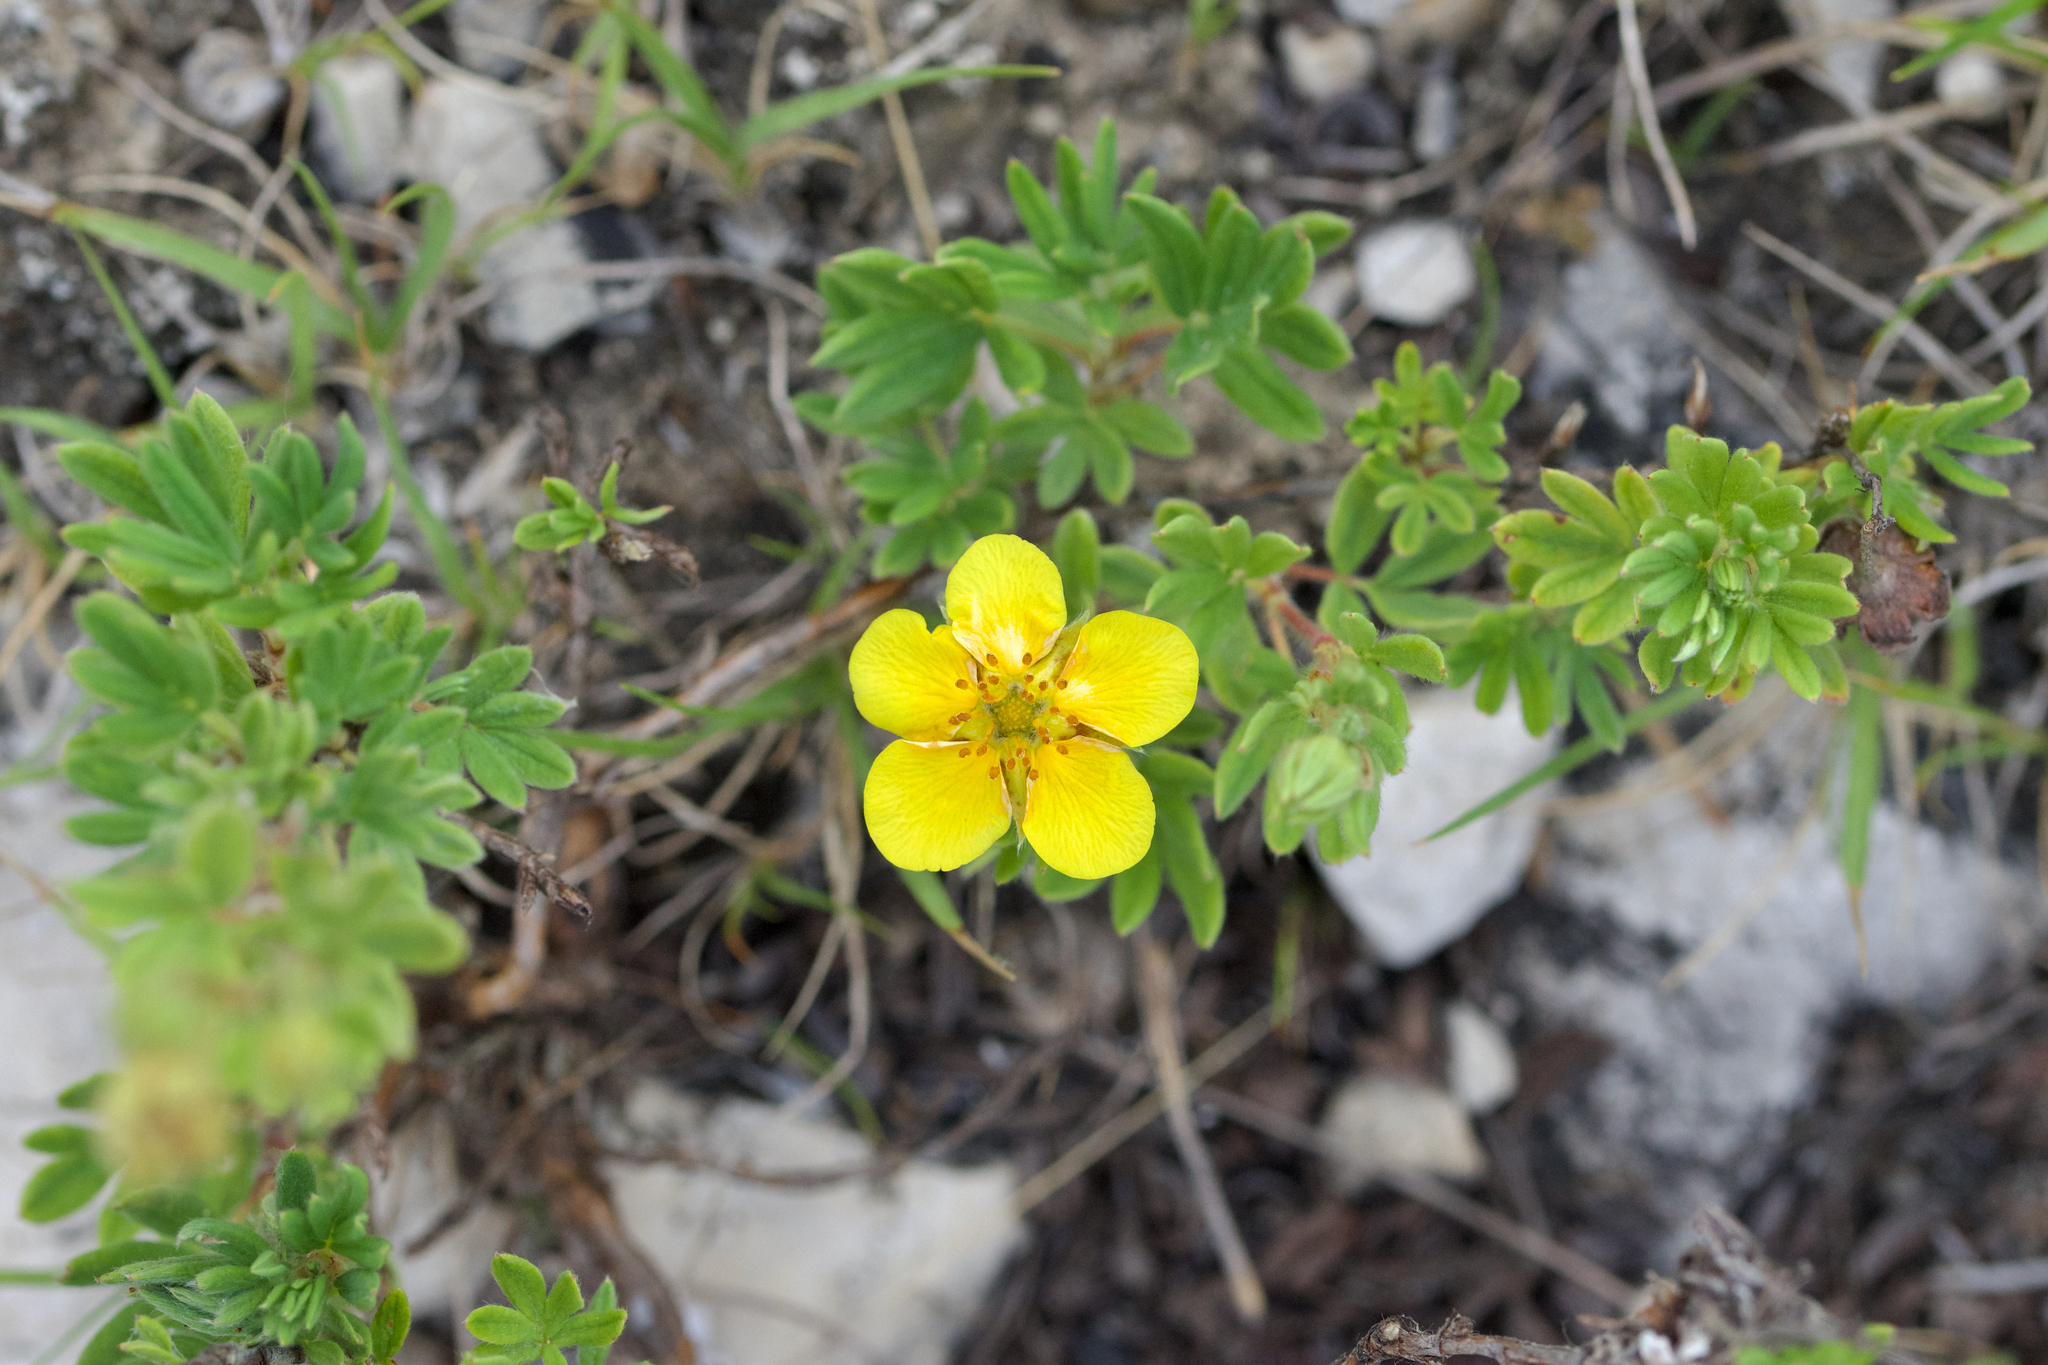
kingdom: Plantae
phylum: Tracheophyta
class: Magnoliopsida
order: Rosales
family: Rosaceae
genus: Dasiphora
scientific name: Dasiphora fruticosa
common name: Shrubby cinquefoil
